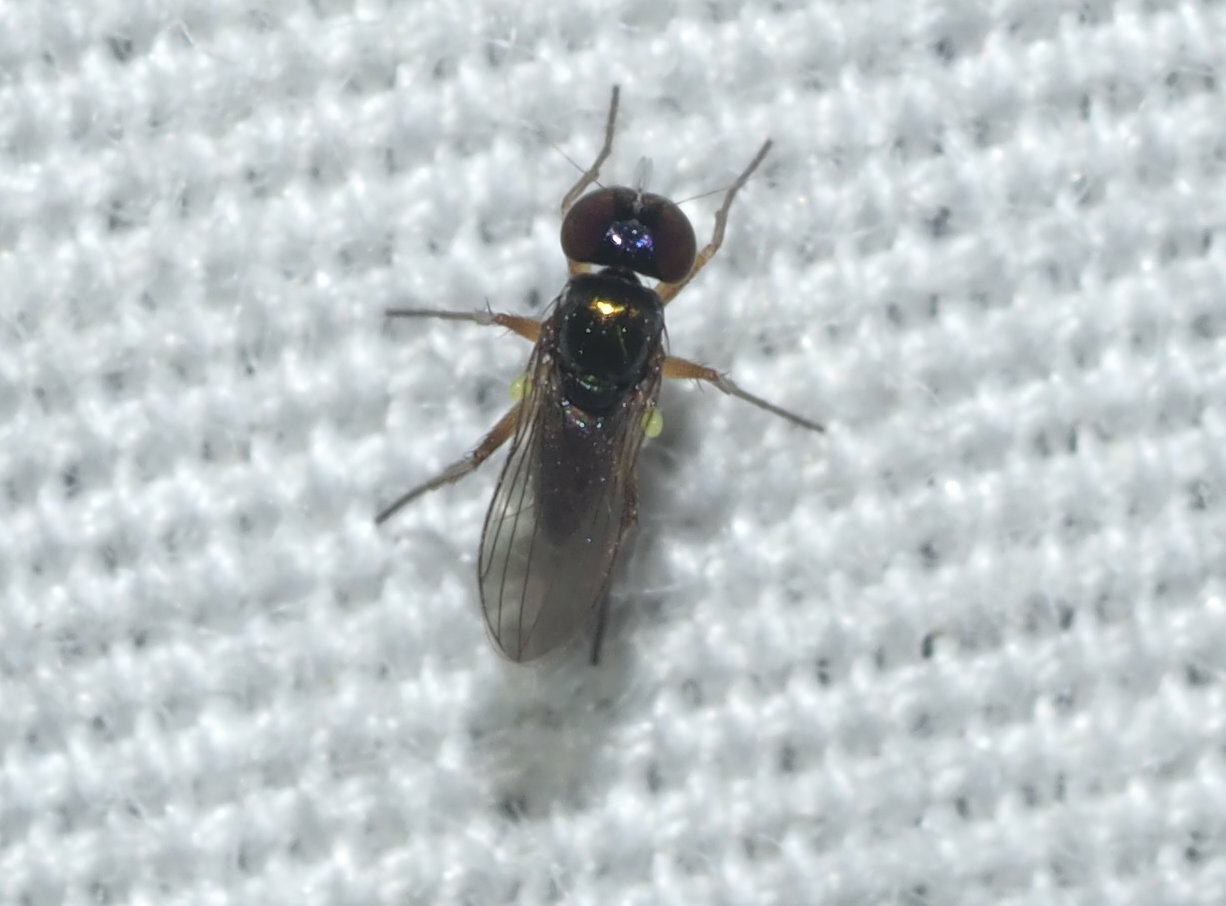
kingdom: Animalia
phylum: Arthropoda
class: Insecta
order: Diptera
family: Dolichopodidae
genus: Chrysotus
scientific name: Chrysotus crosbyi
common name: Longlegged fly
